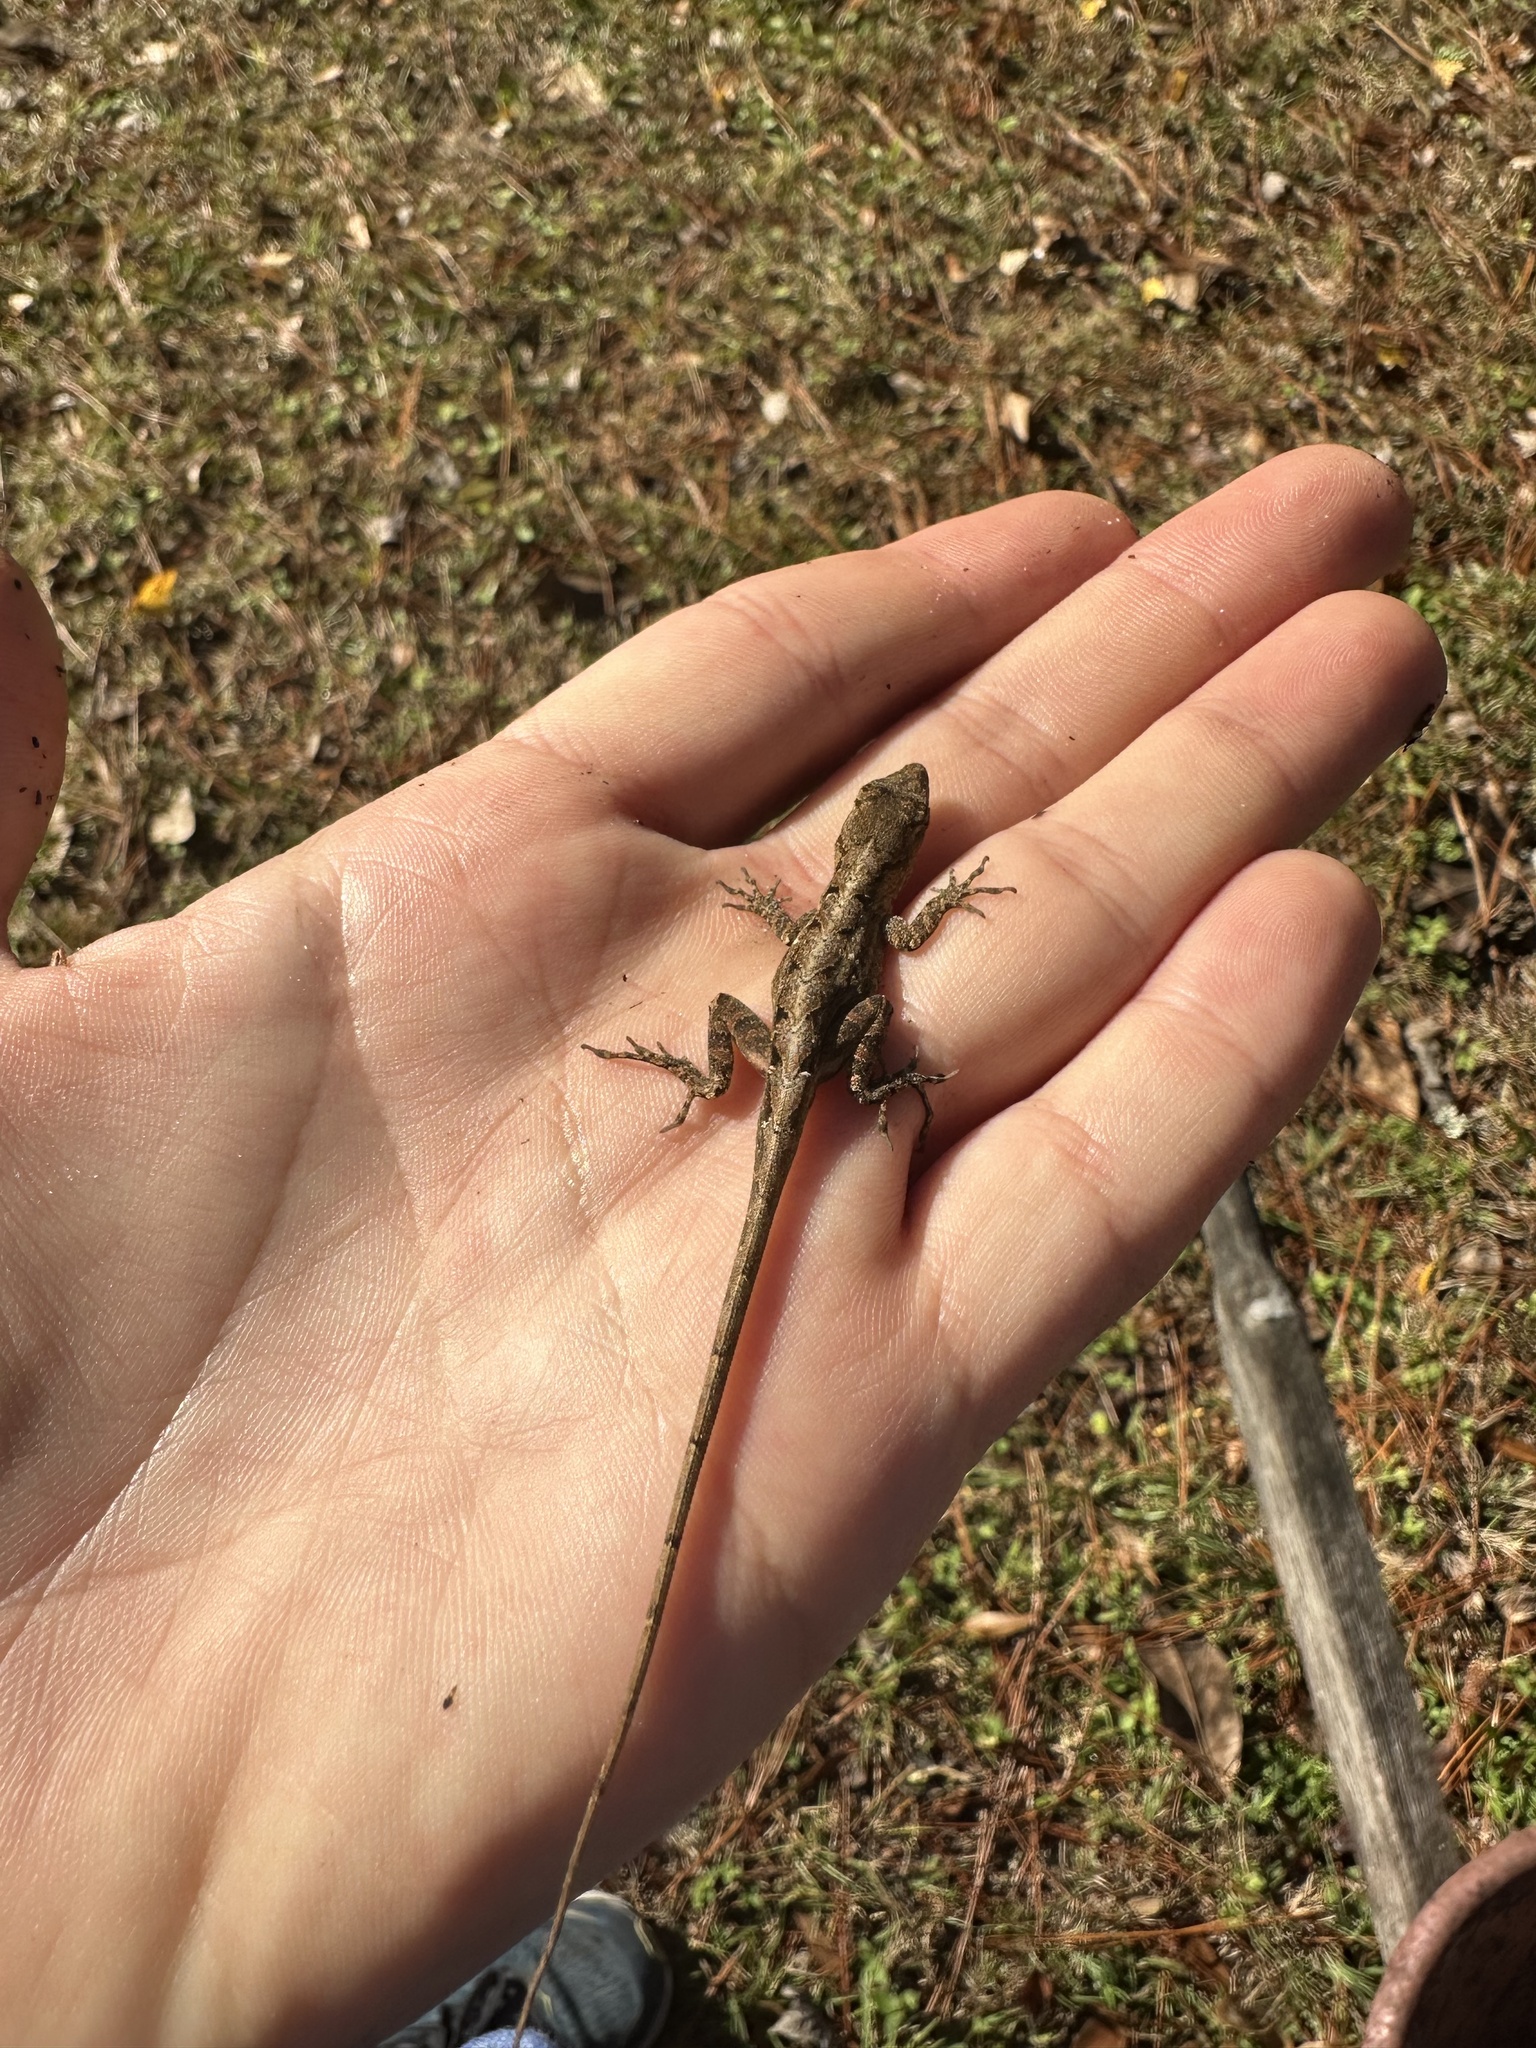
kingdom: Animalia
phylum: Chordata
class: Squamata
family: Dactyloidae
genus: Anolis
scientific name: Anolis sagrei
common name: Brown anole
